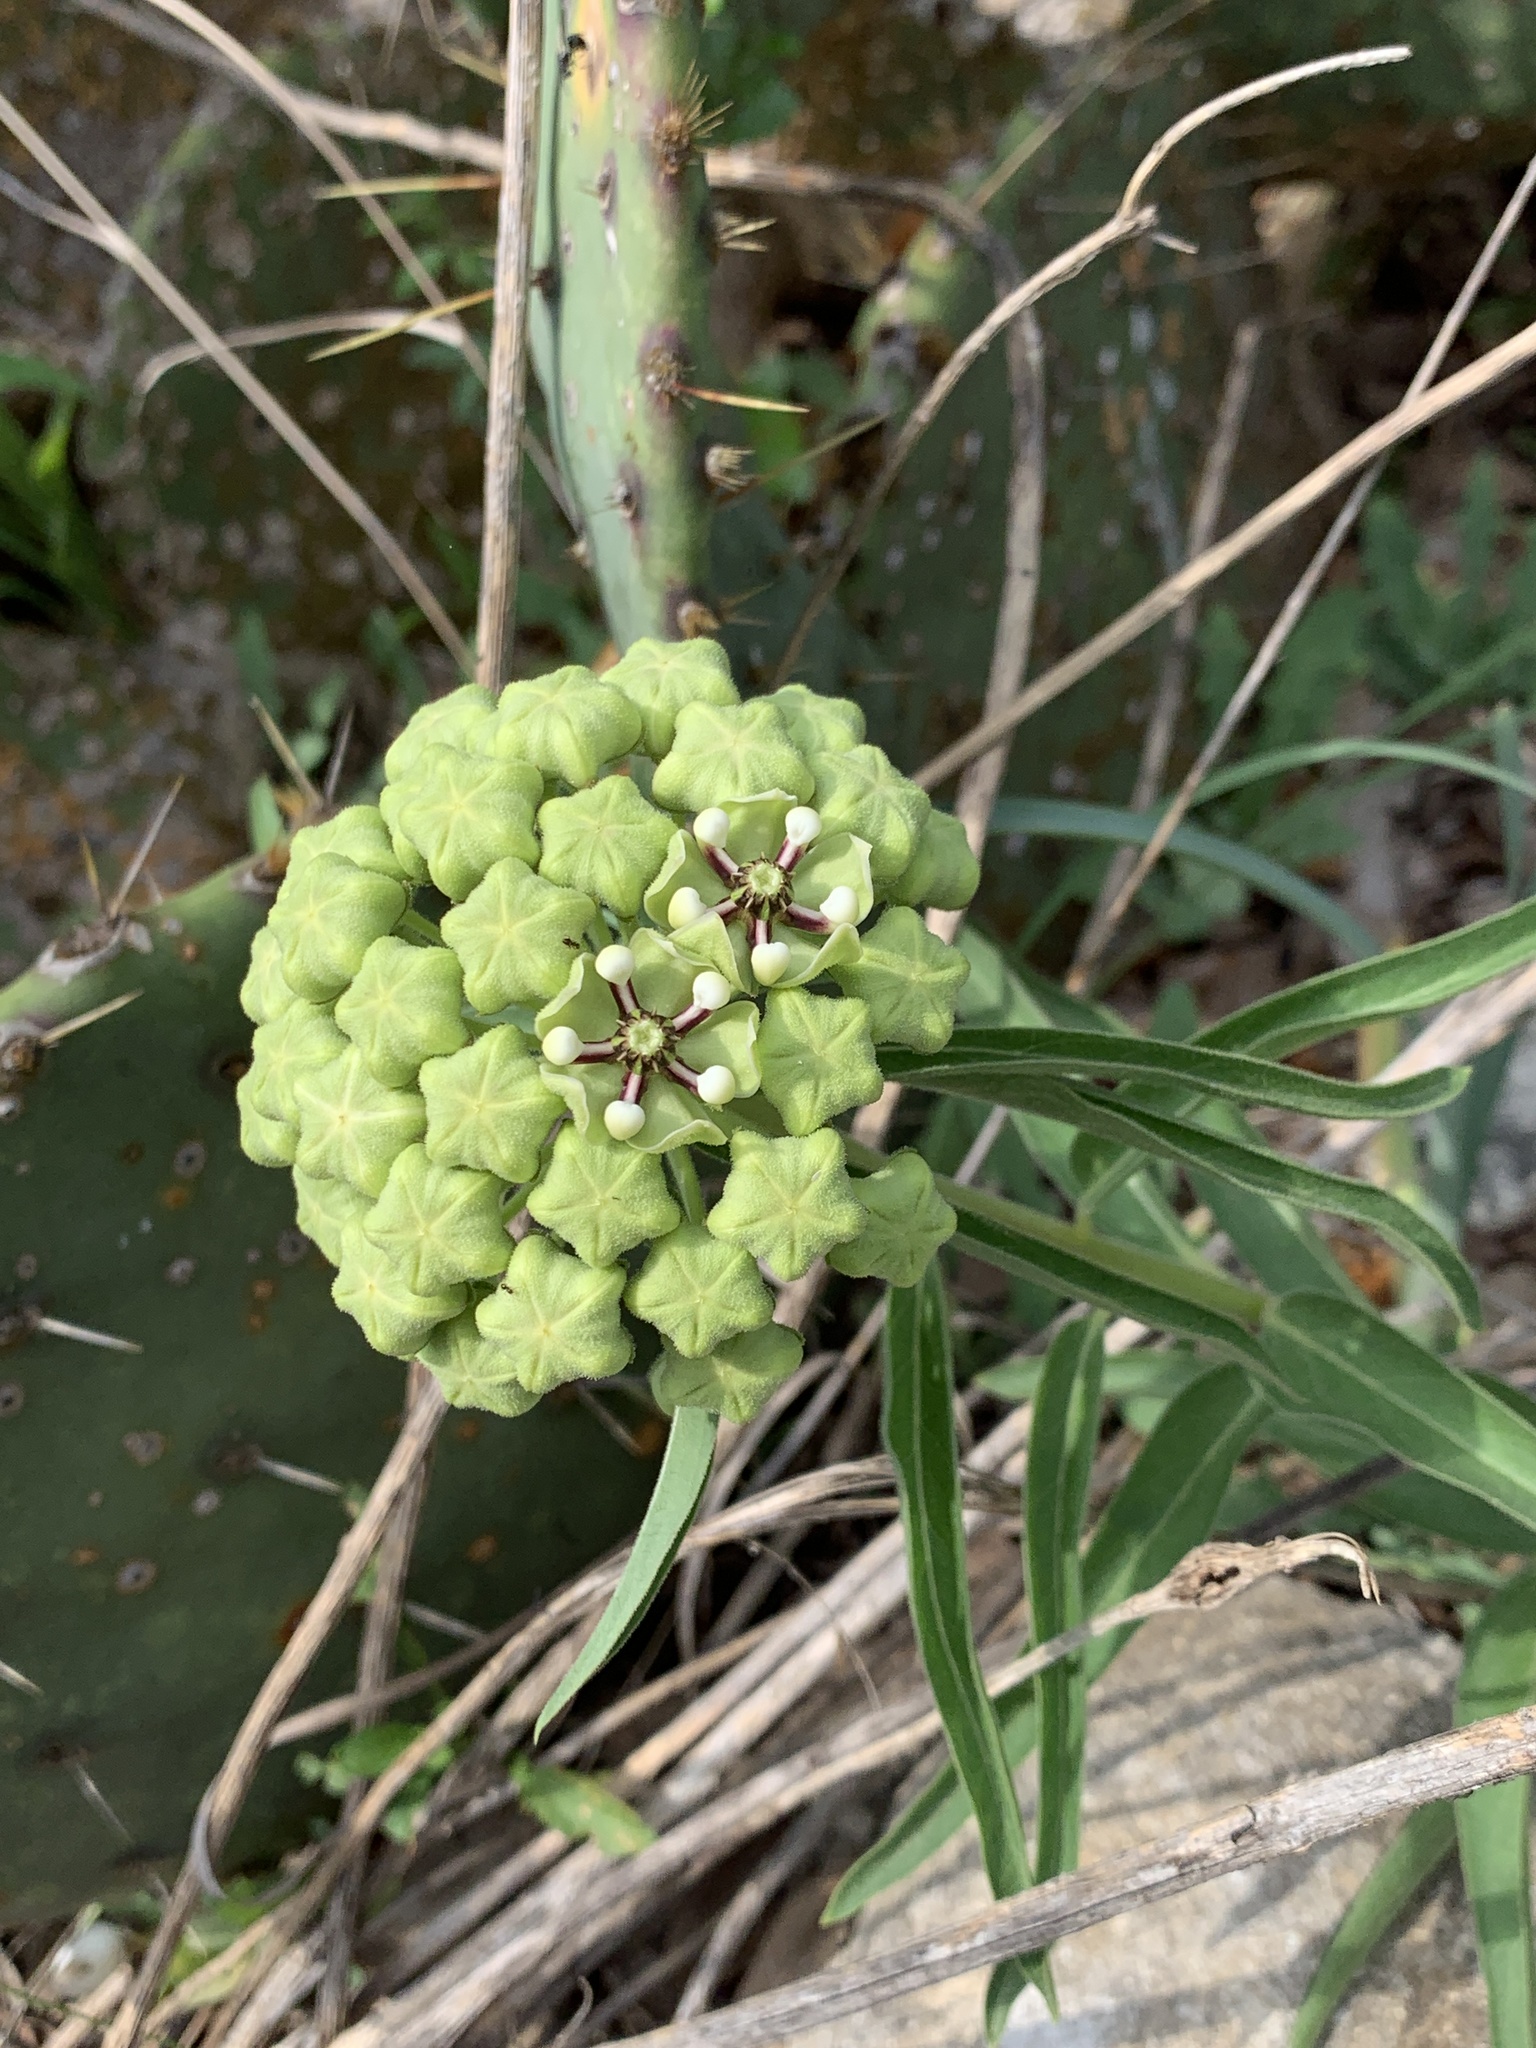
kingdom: Plantae
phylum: Tracheophyta
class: Magnoliopsida
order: Gentianales
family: Apocynaceae
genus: Asclepias
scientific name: Asclepias asperula
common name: Antelope horns
